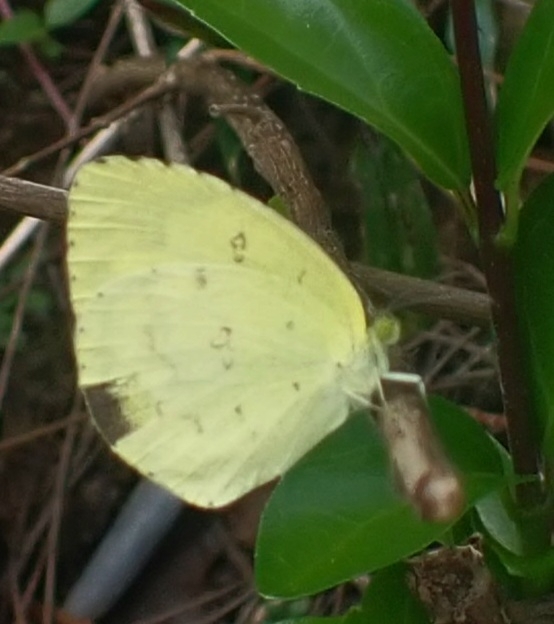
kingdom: Animalia
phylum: Arthropoda
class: Insecta
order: Lepidoptera
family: Pieridae
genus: Eurema
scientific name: Eurema hecabe
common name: Pale grass yellow
